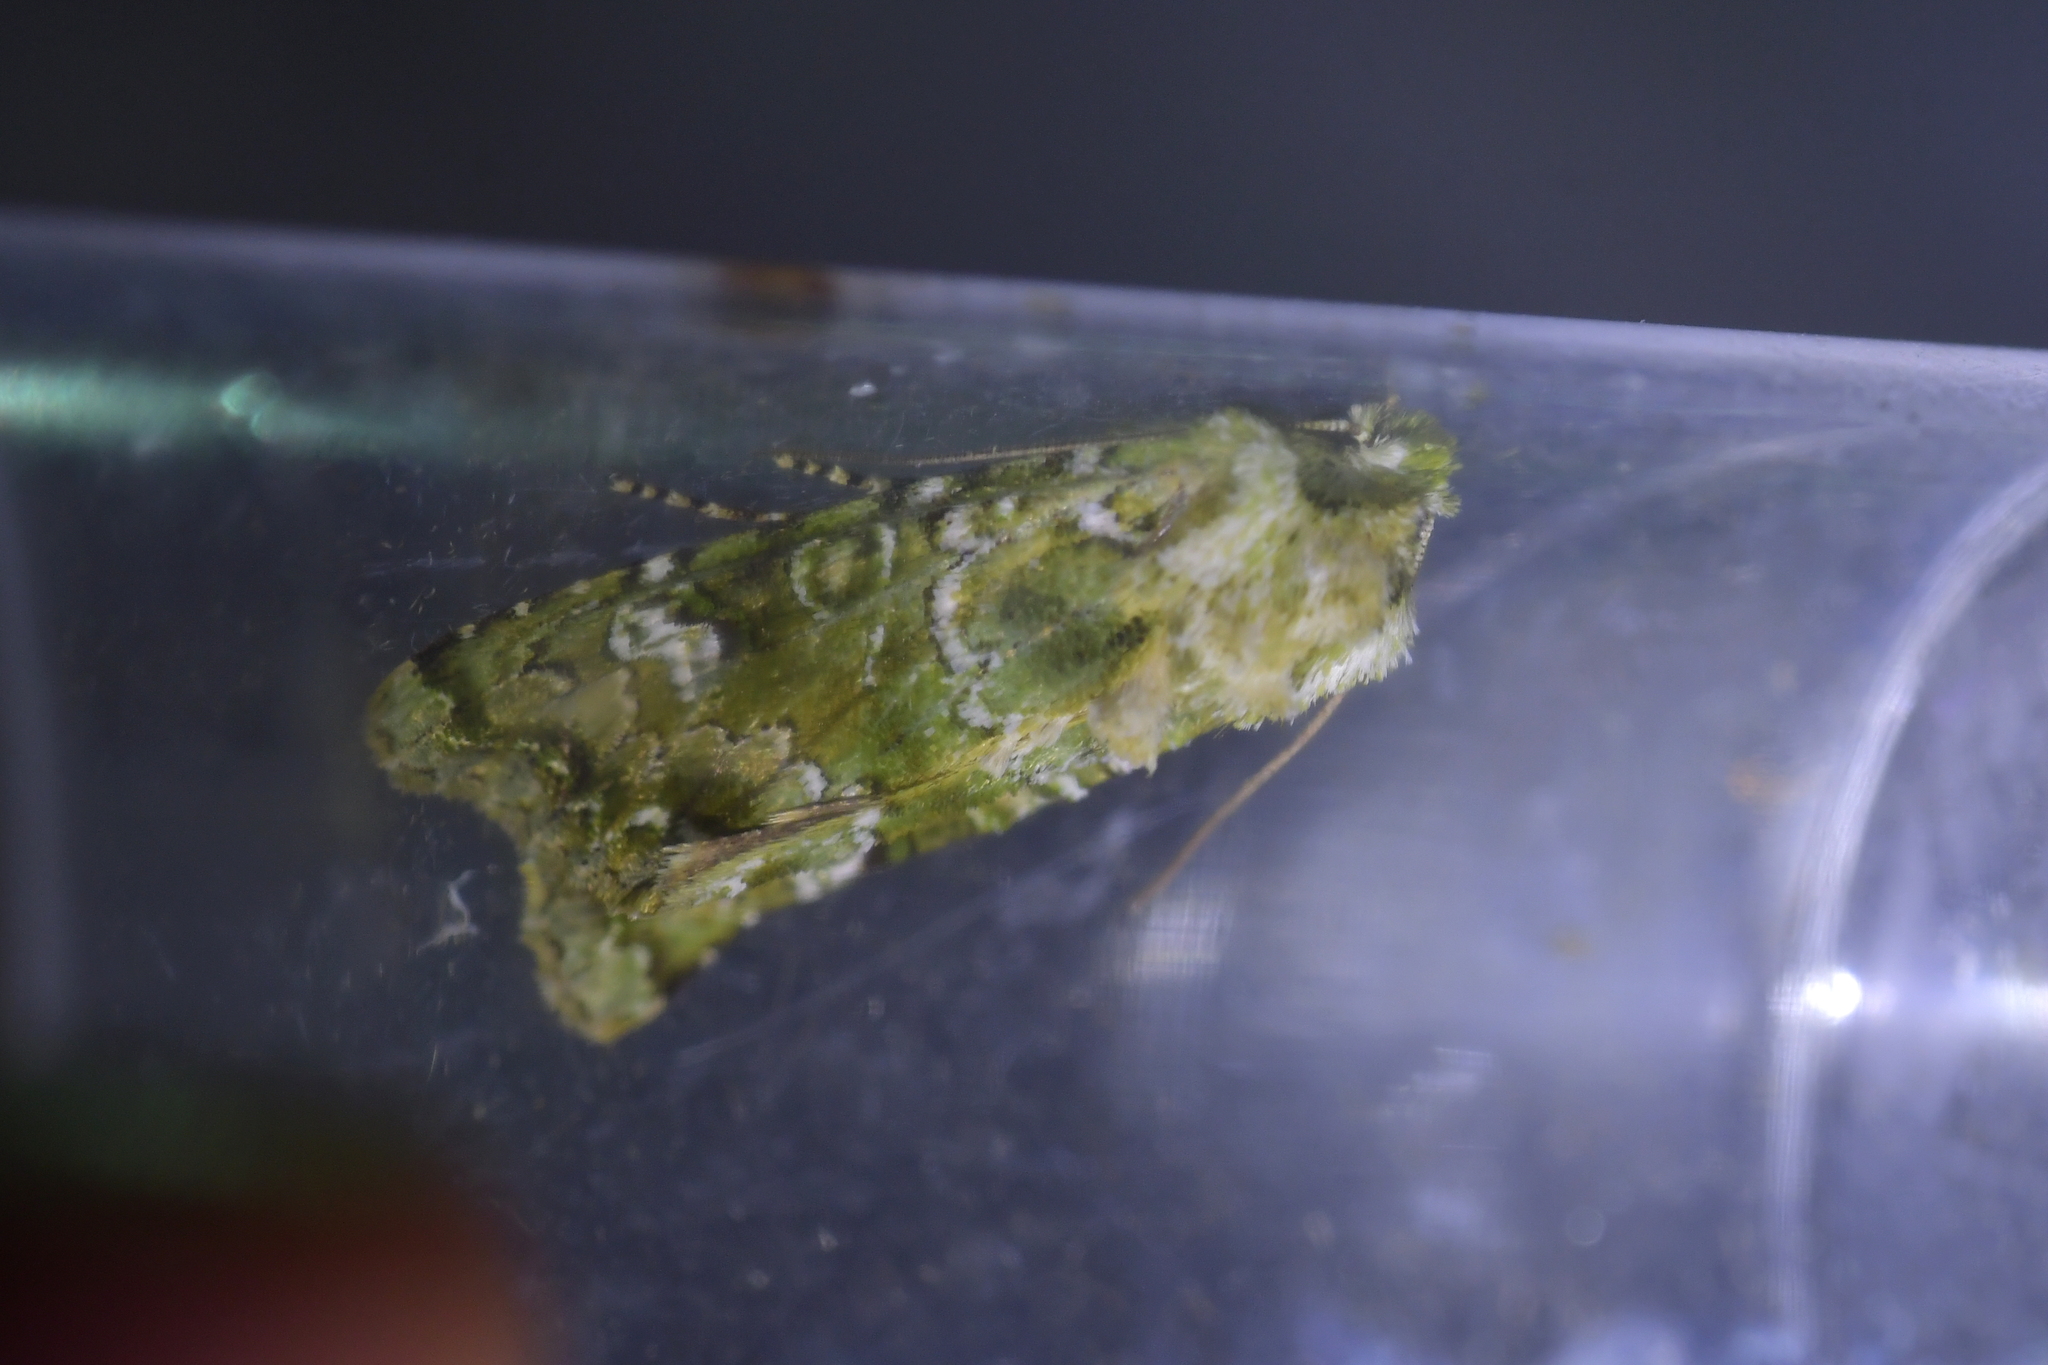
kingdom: Animalia
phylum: Arthropoda
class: Insecta
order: Lepidoptera
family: Noctuidae
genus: Ichneutica
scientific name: Ichneutica
